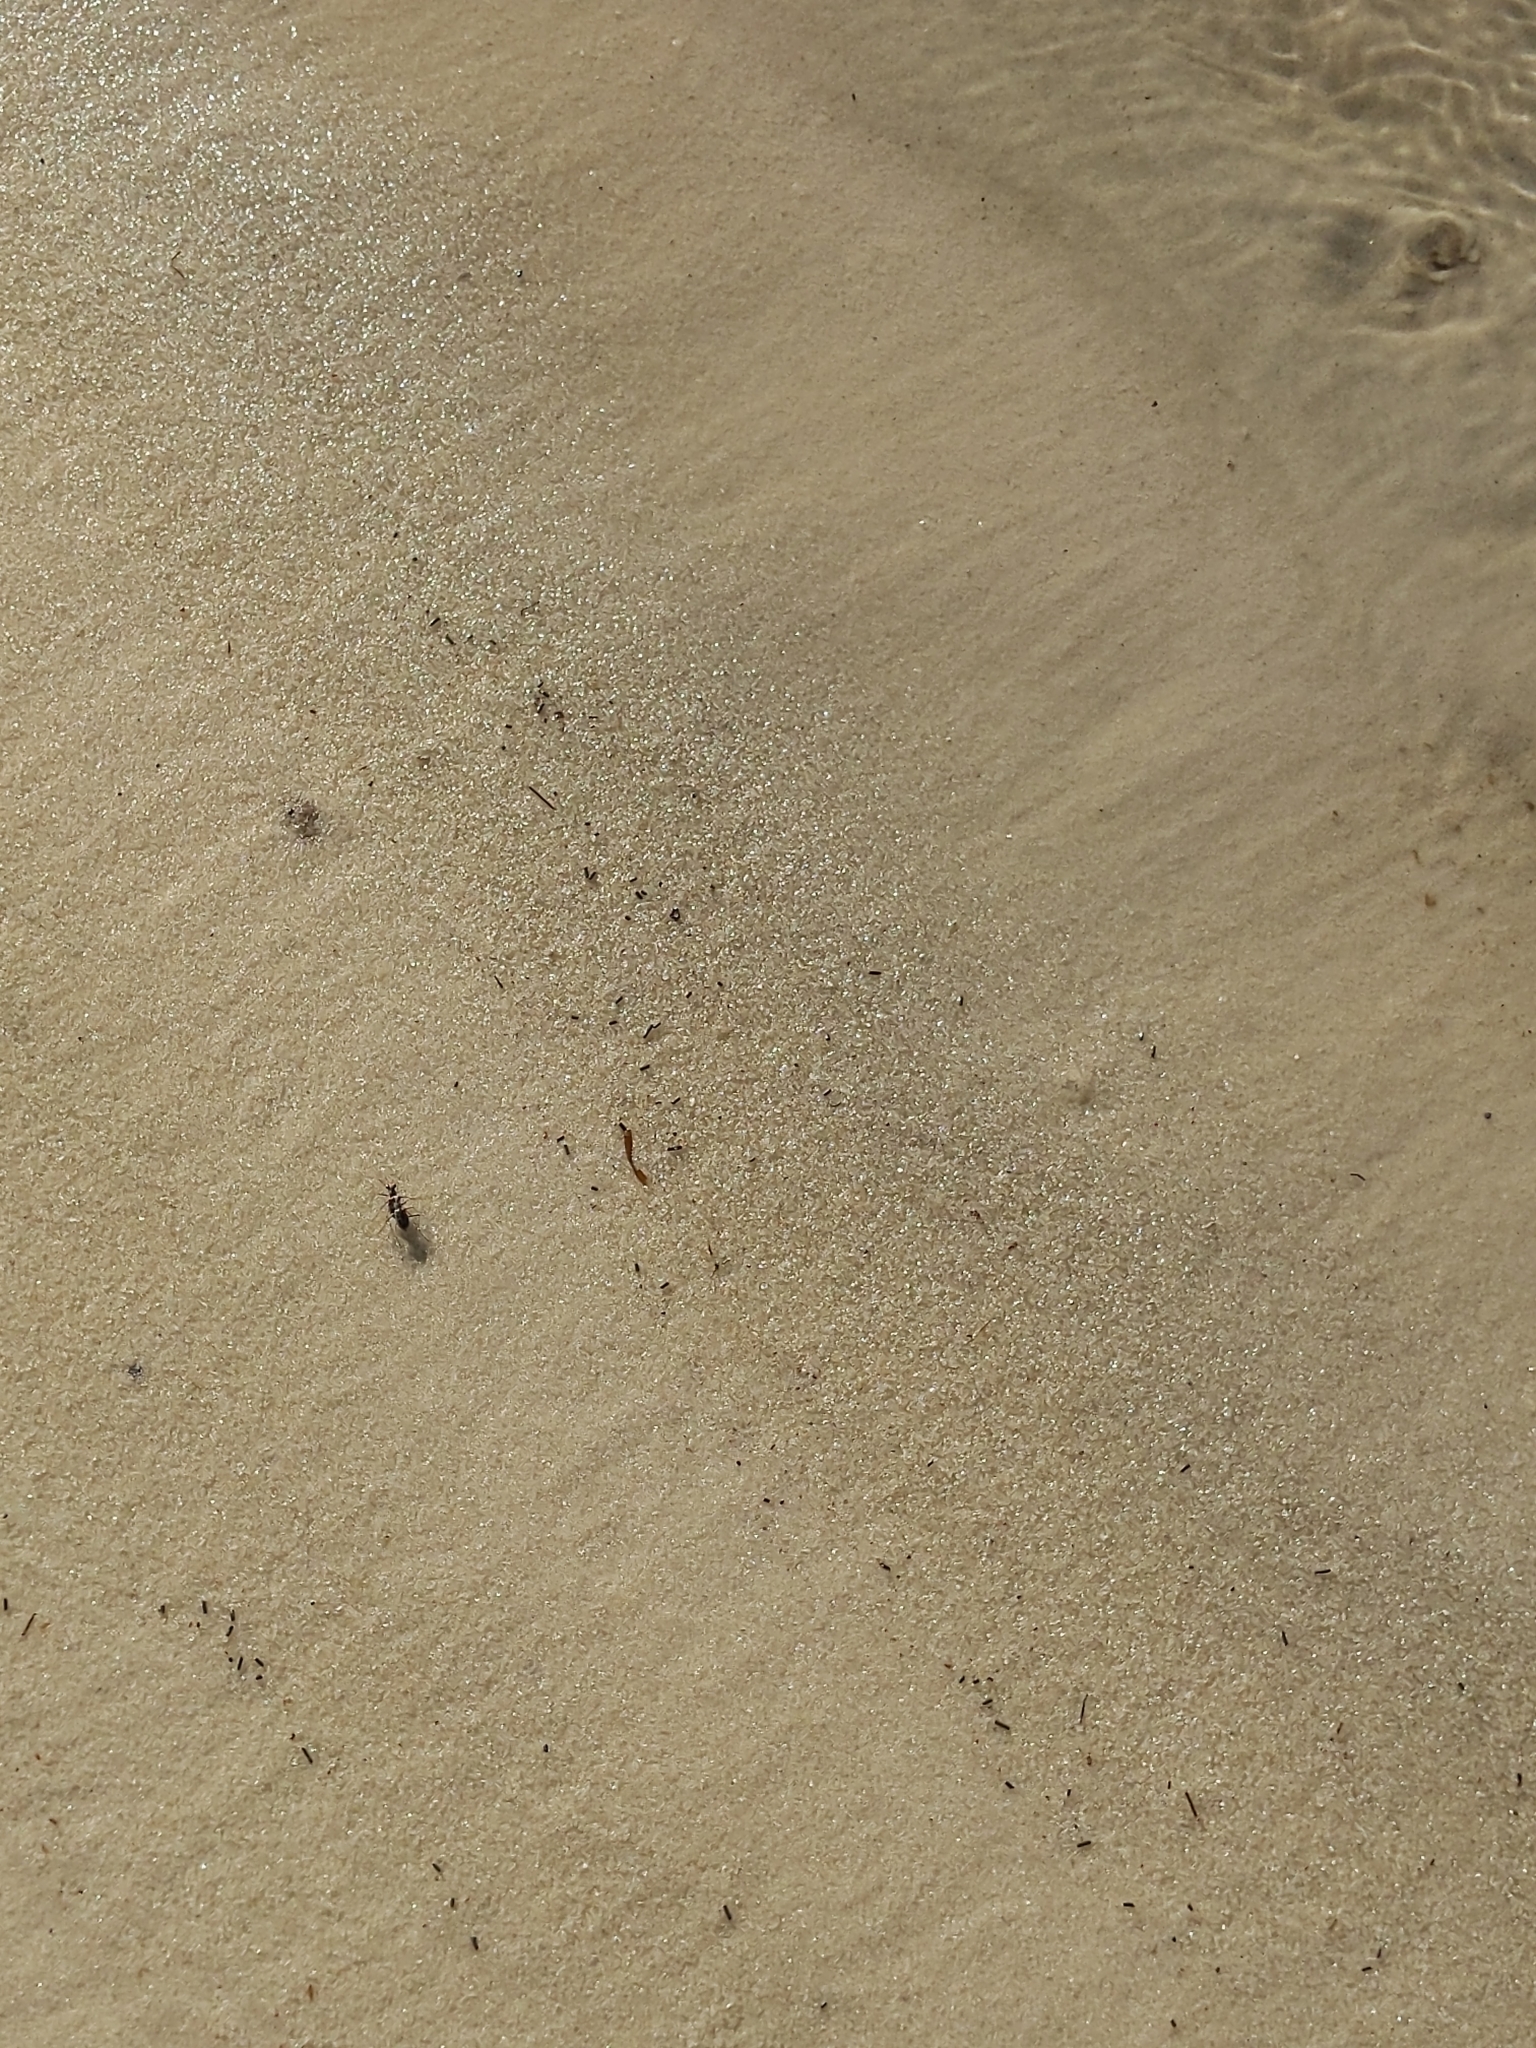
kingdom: Animalia
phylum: Arthropoda
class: Insecta
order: Coleoptera
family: Carabidae
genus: Ellipsoptera
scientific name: Ellipsoptera hamata
